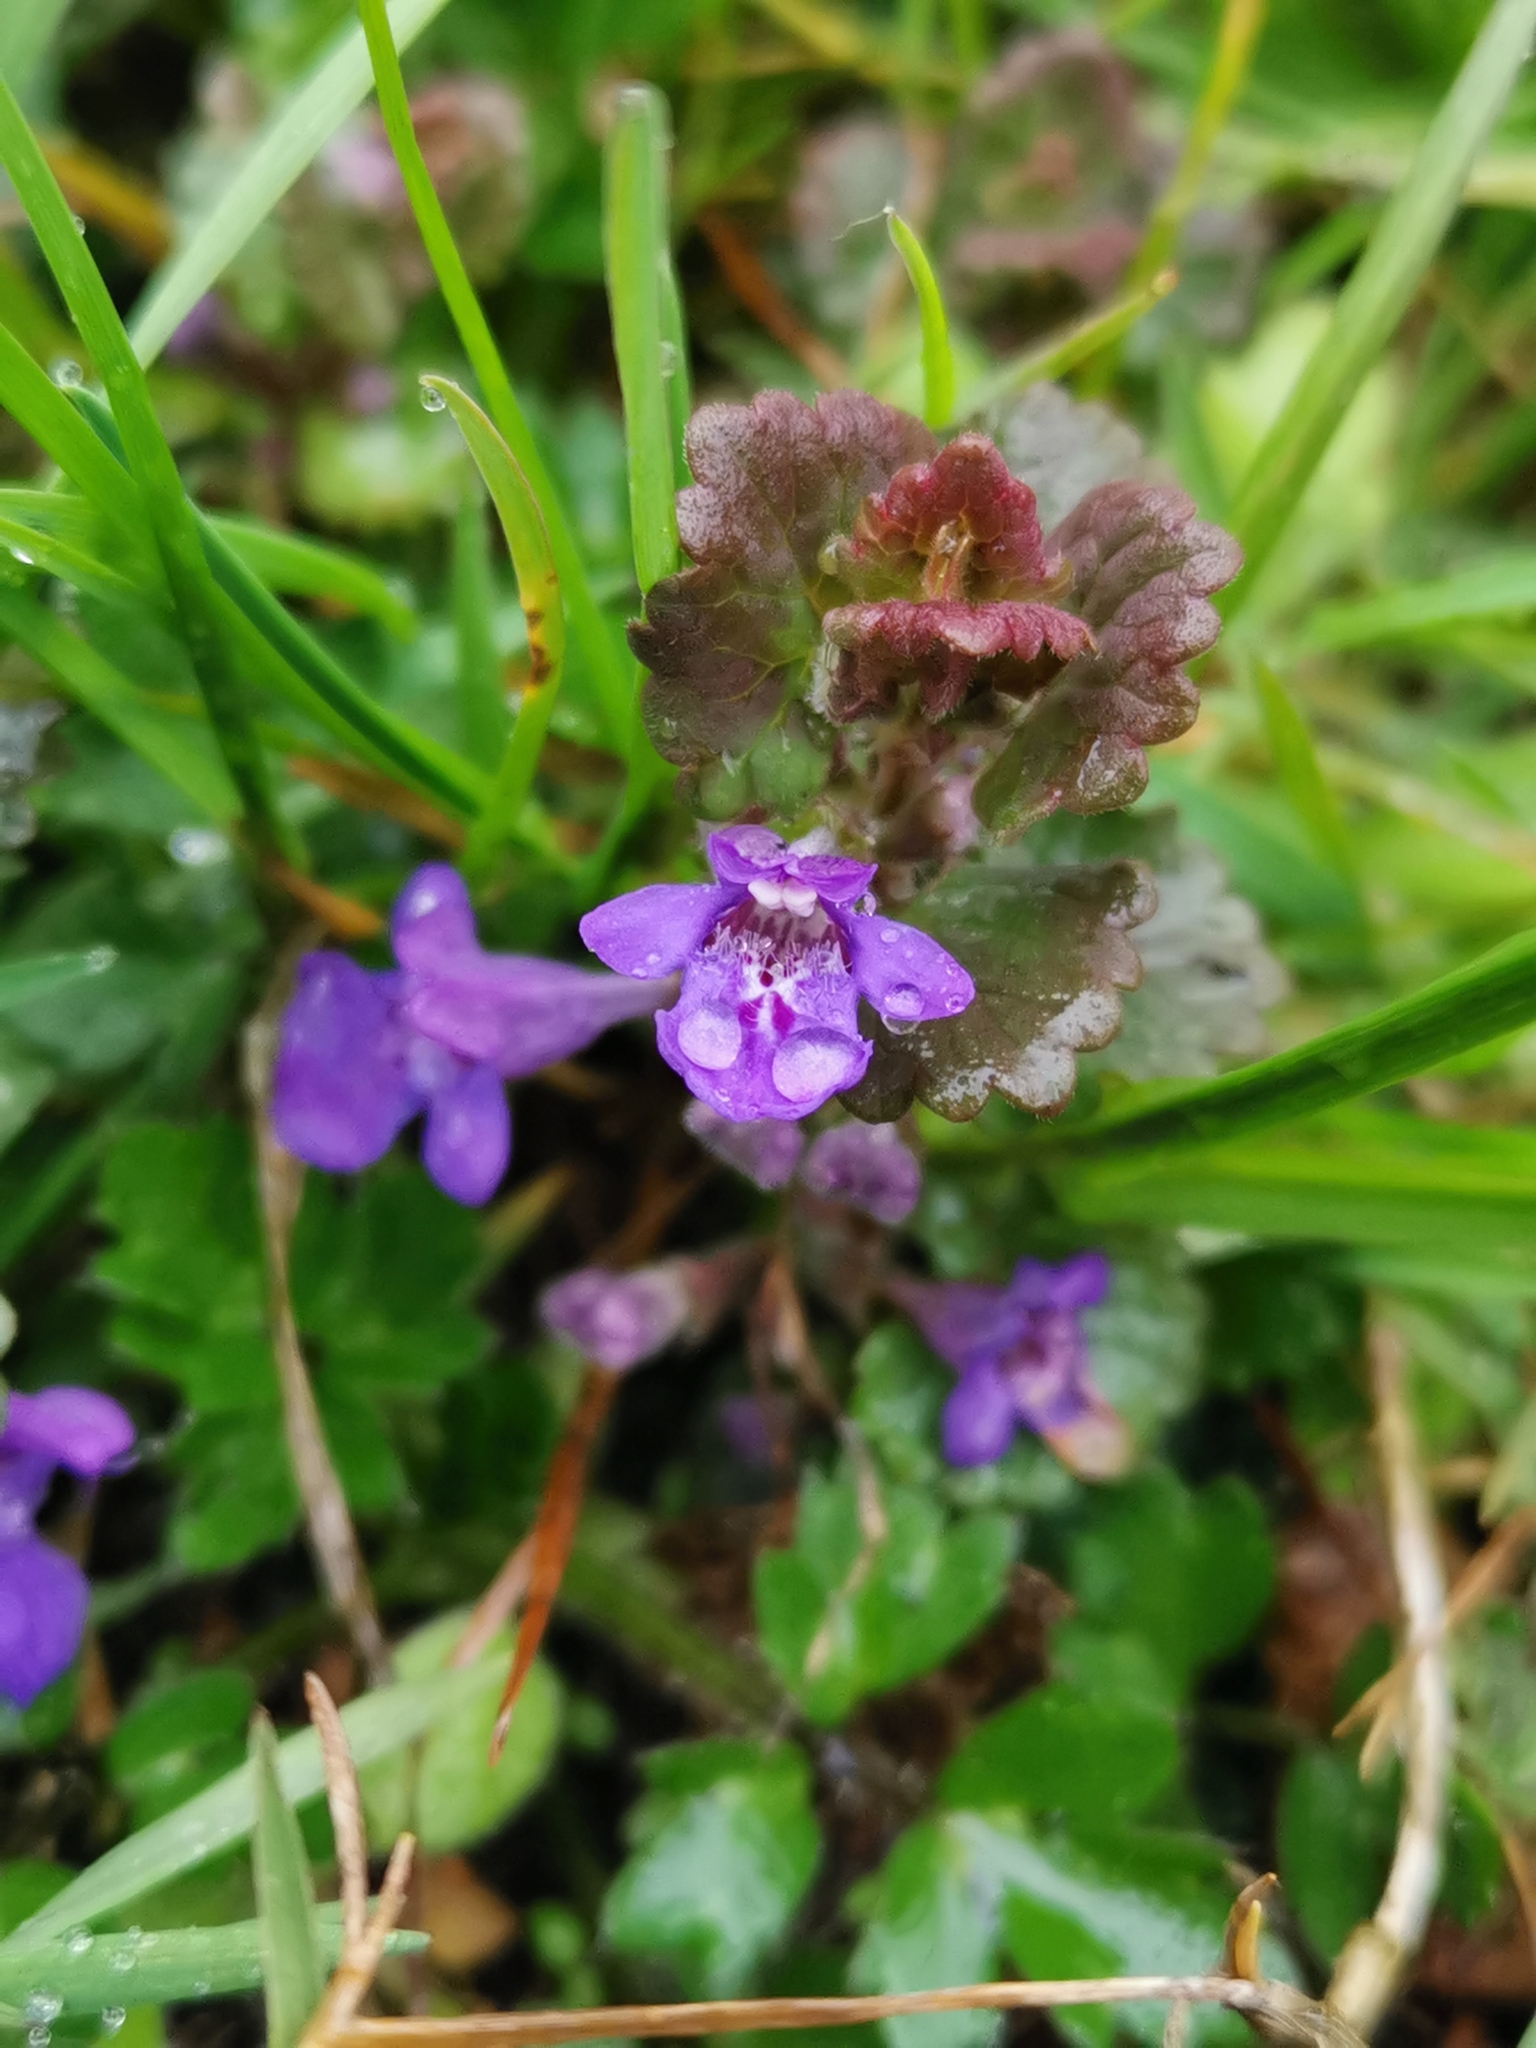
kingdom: Plantae
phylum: Tracheophyta
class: Magnoliopsida
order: Lamiales
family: Lamiaceae
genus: Glechoma
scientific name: Glechoma hederacea
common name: Ground ivy
